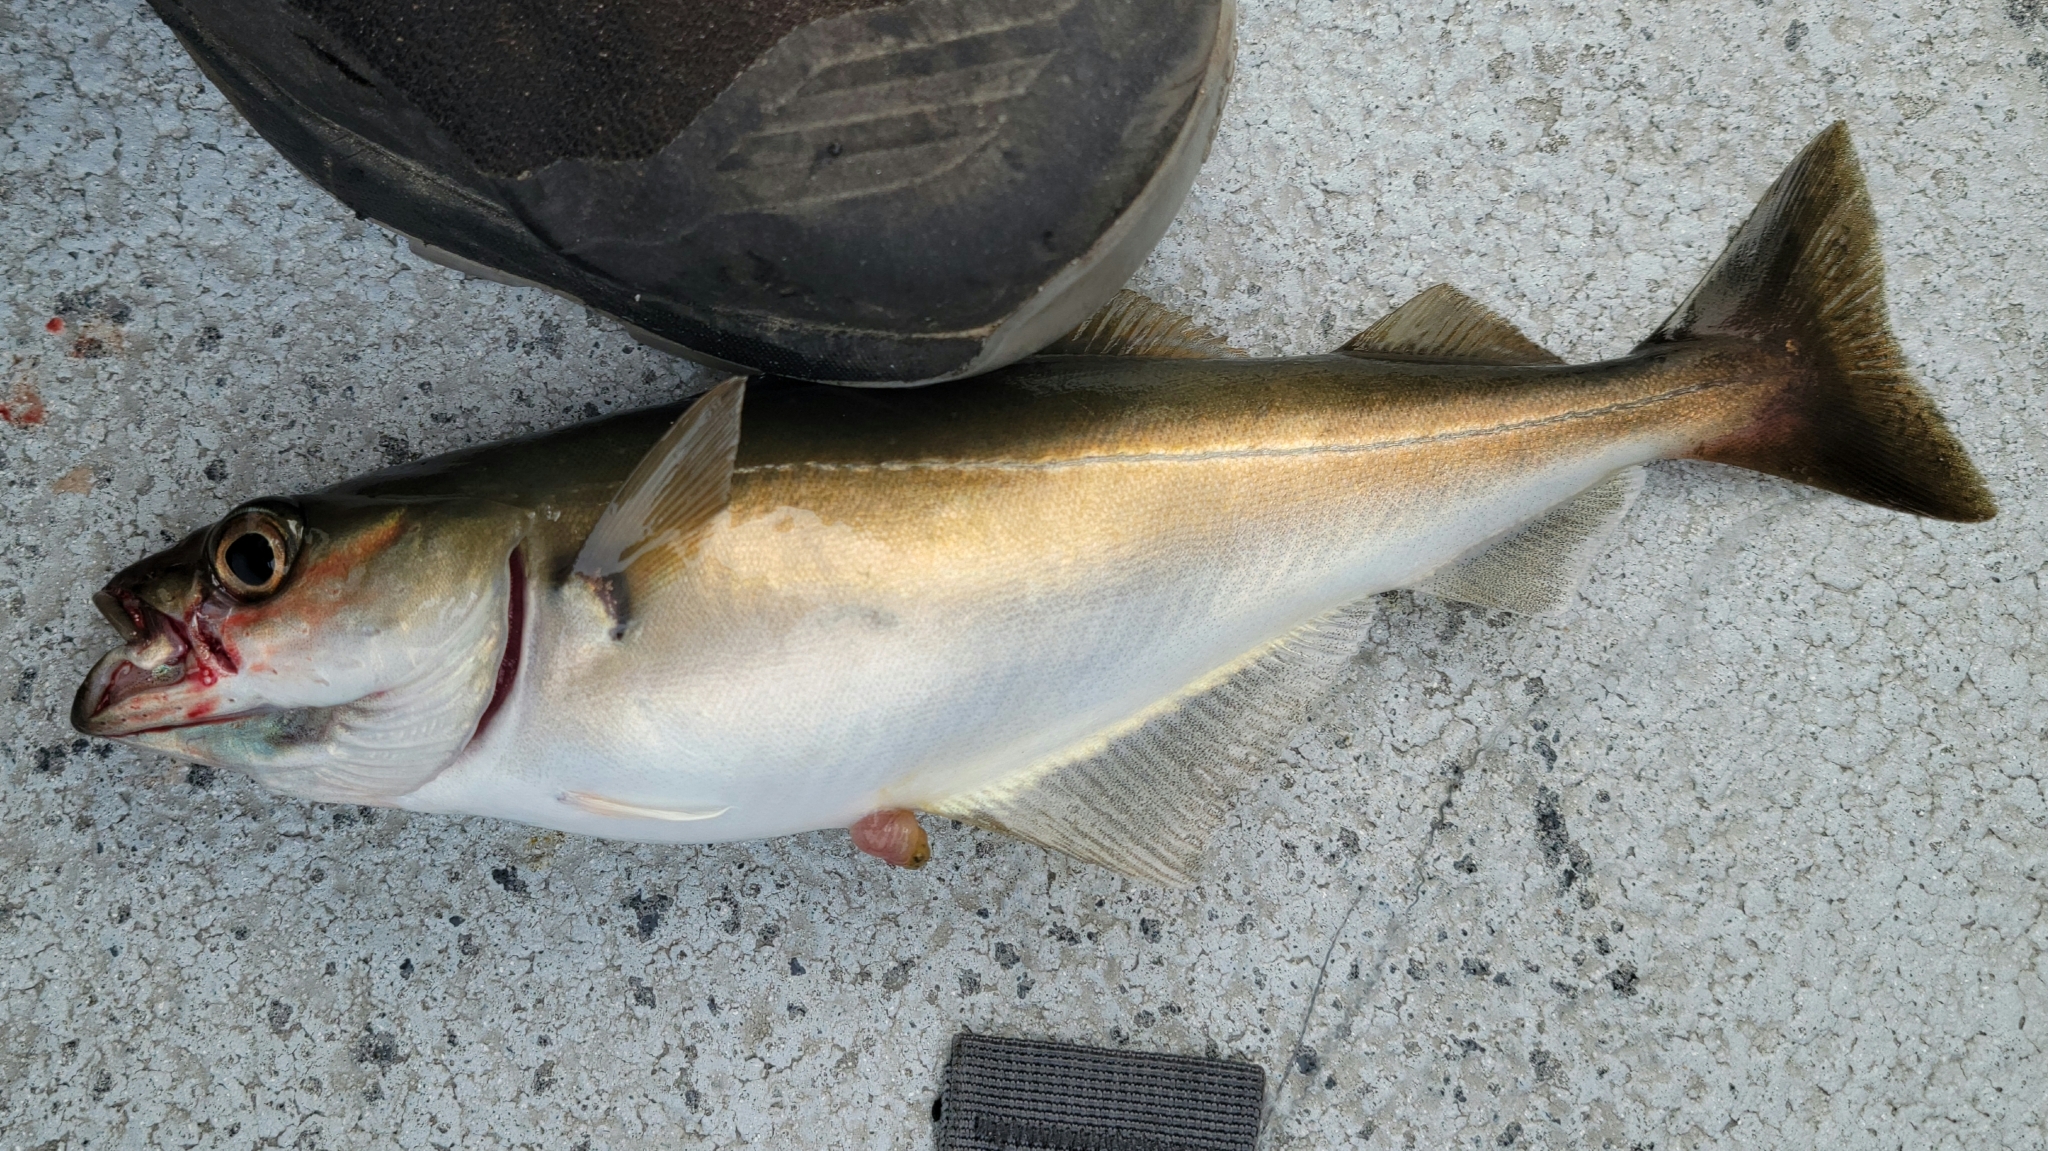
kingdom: Animalia
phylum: Chordata
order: Gadiformes
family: Gadidae
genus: Pollachius
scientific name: Pollachius virens
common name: Saithe
